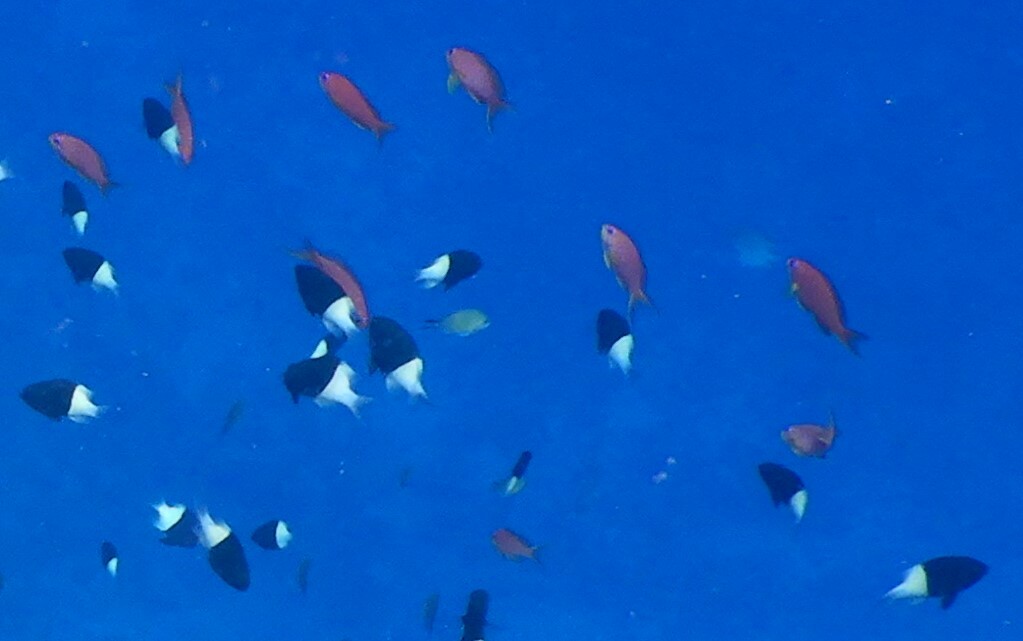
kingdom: Animalia
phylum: Chordata
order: Perciformes
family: Serranidae
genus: Pseudanthias
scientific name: Pseudanthias squamipinnis
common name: Scalefin anthias
